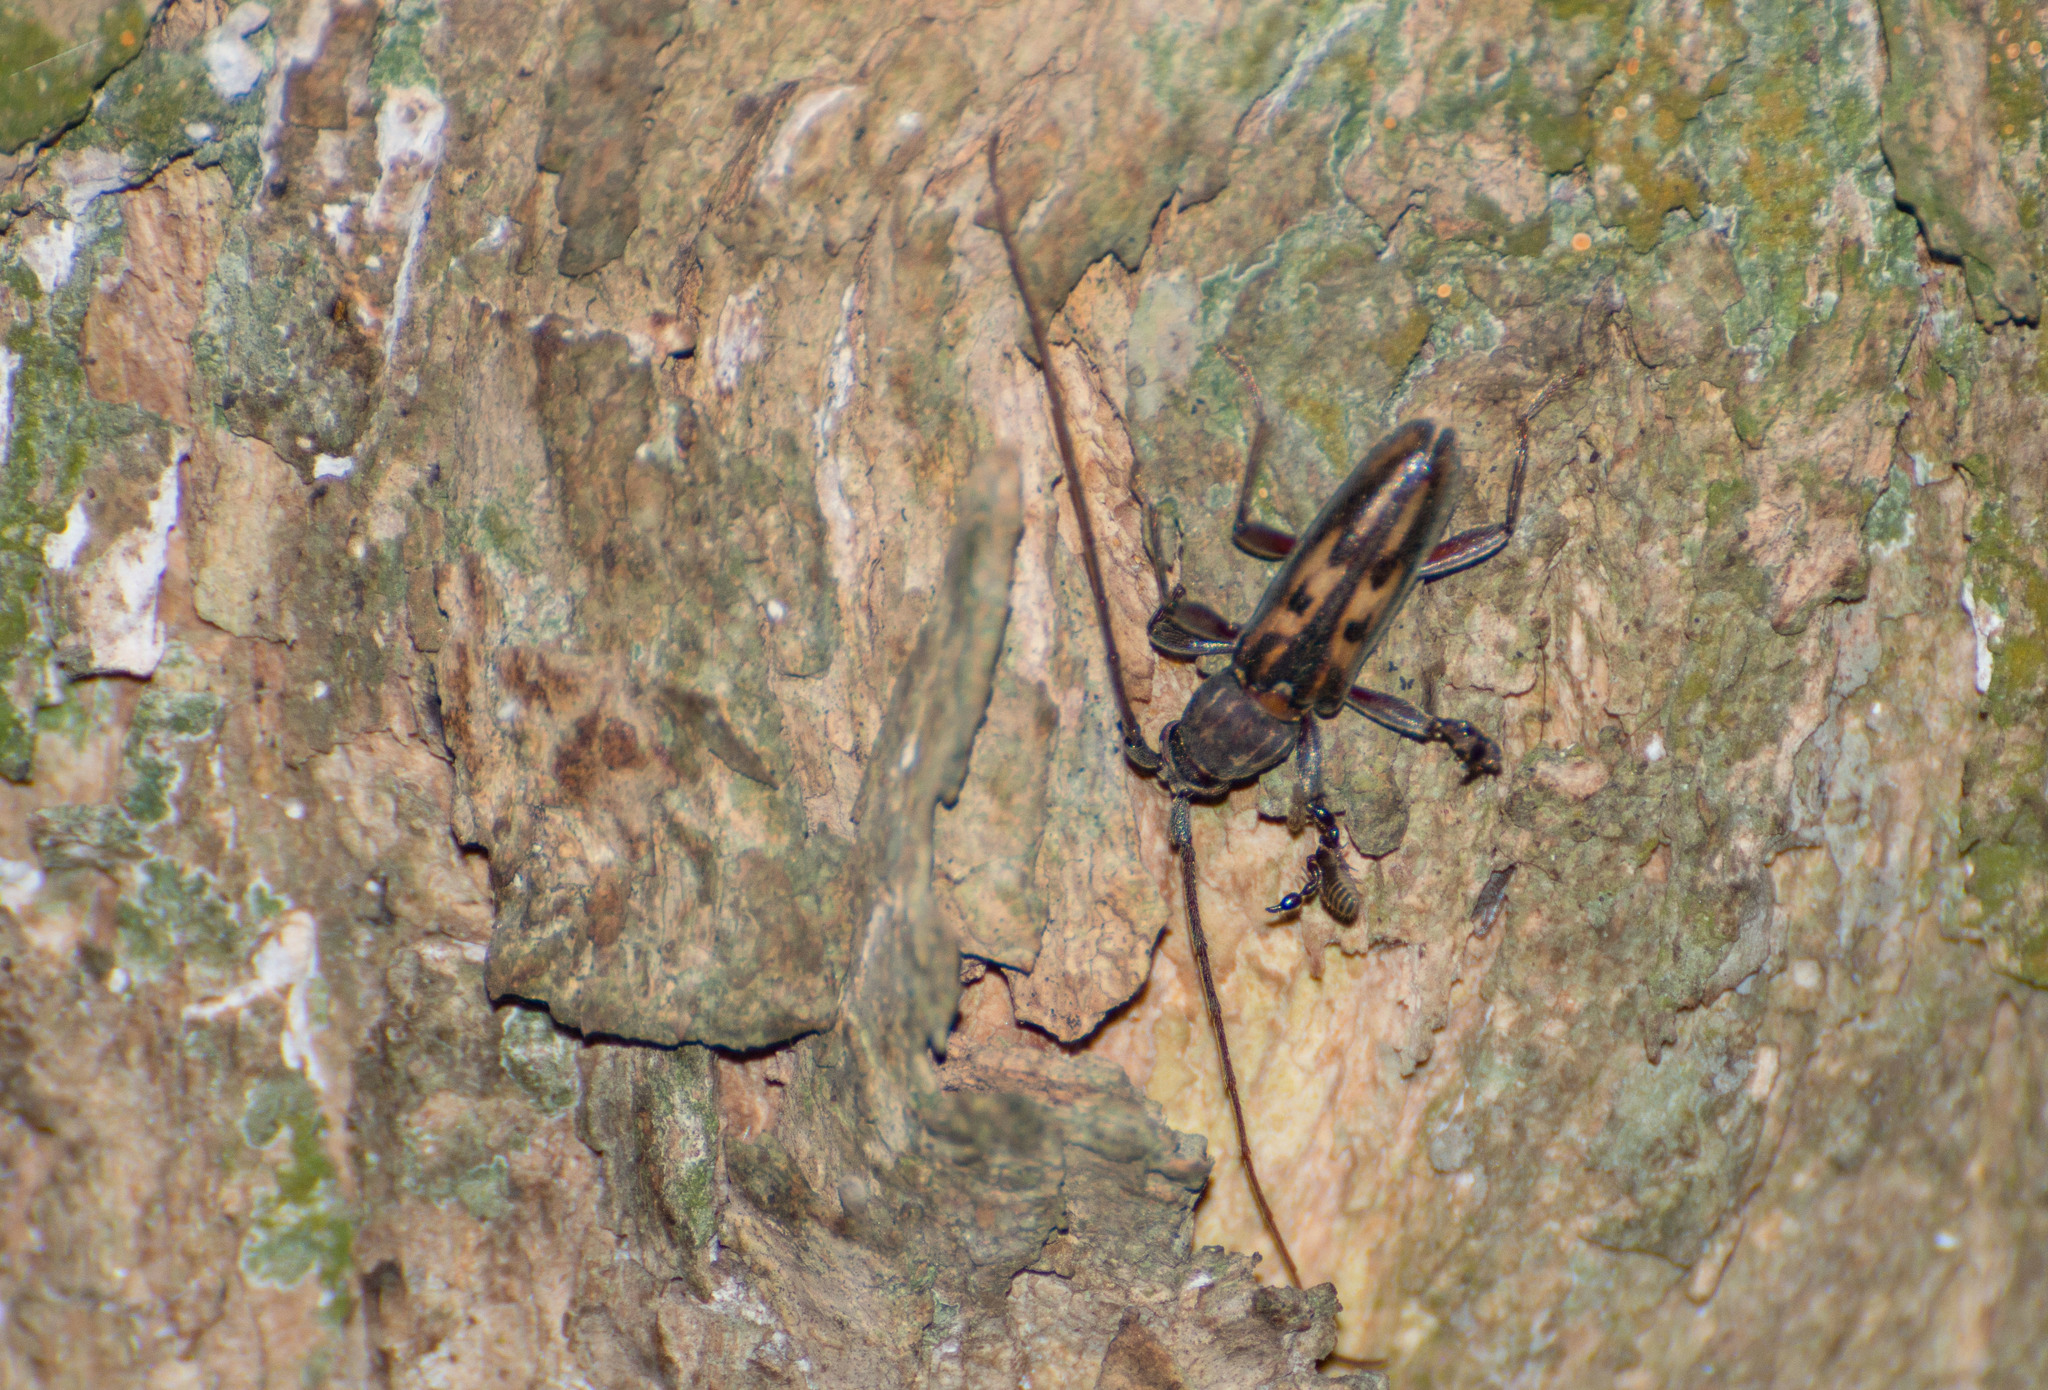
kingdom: Animalia
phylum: Arthropoda
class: Insecta
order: Coleoptera
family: Cerambycidae
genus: Achryson
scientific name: Achryson foersteri
